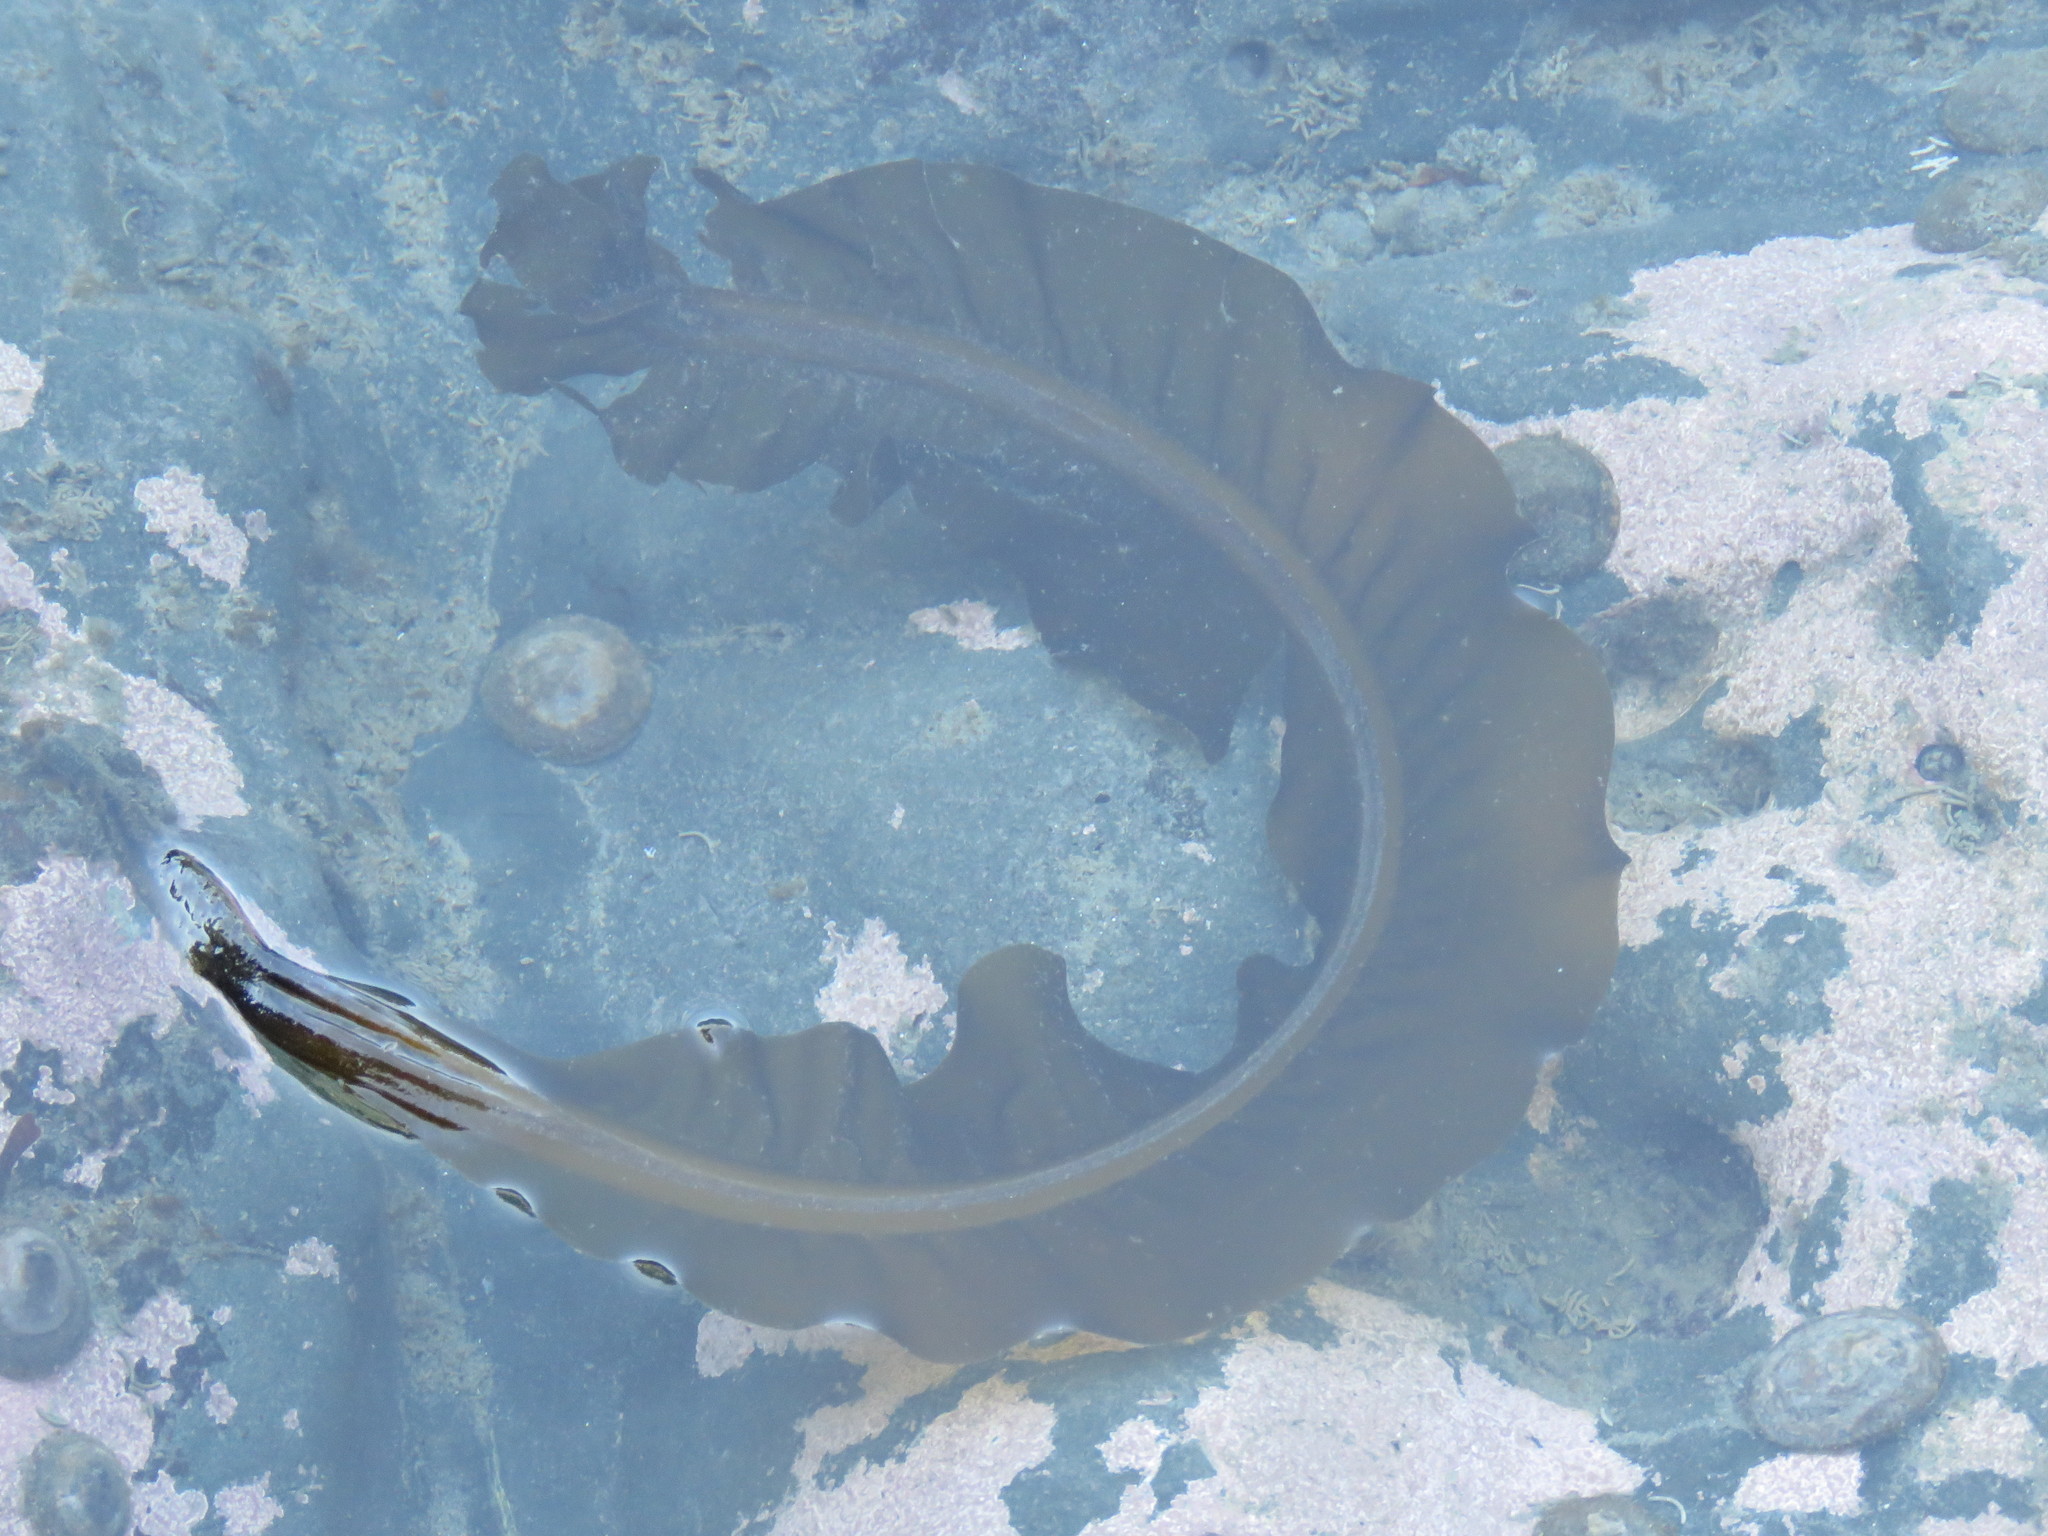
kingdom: Chromista
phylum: Ochrophyta
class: Phaeophyceae
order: Laminariales
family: Laminariaceae
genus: Cymathaere
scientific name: Cymathaere triplicata
